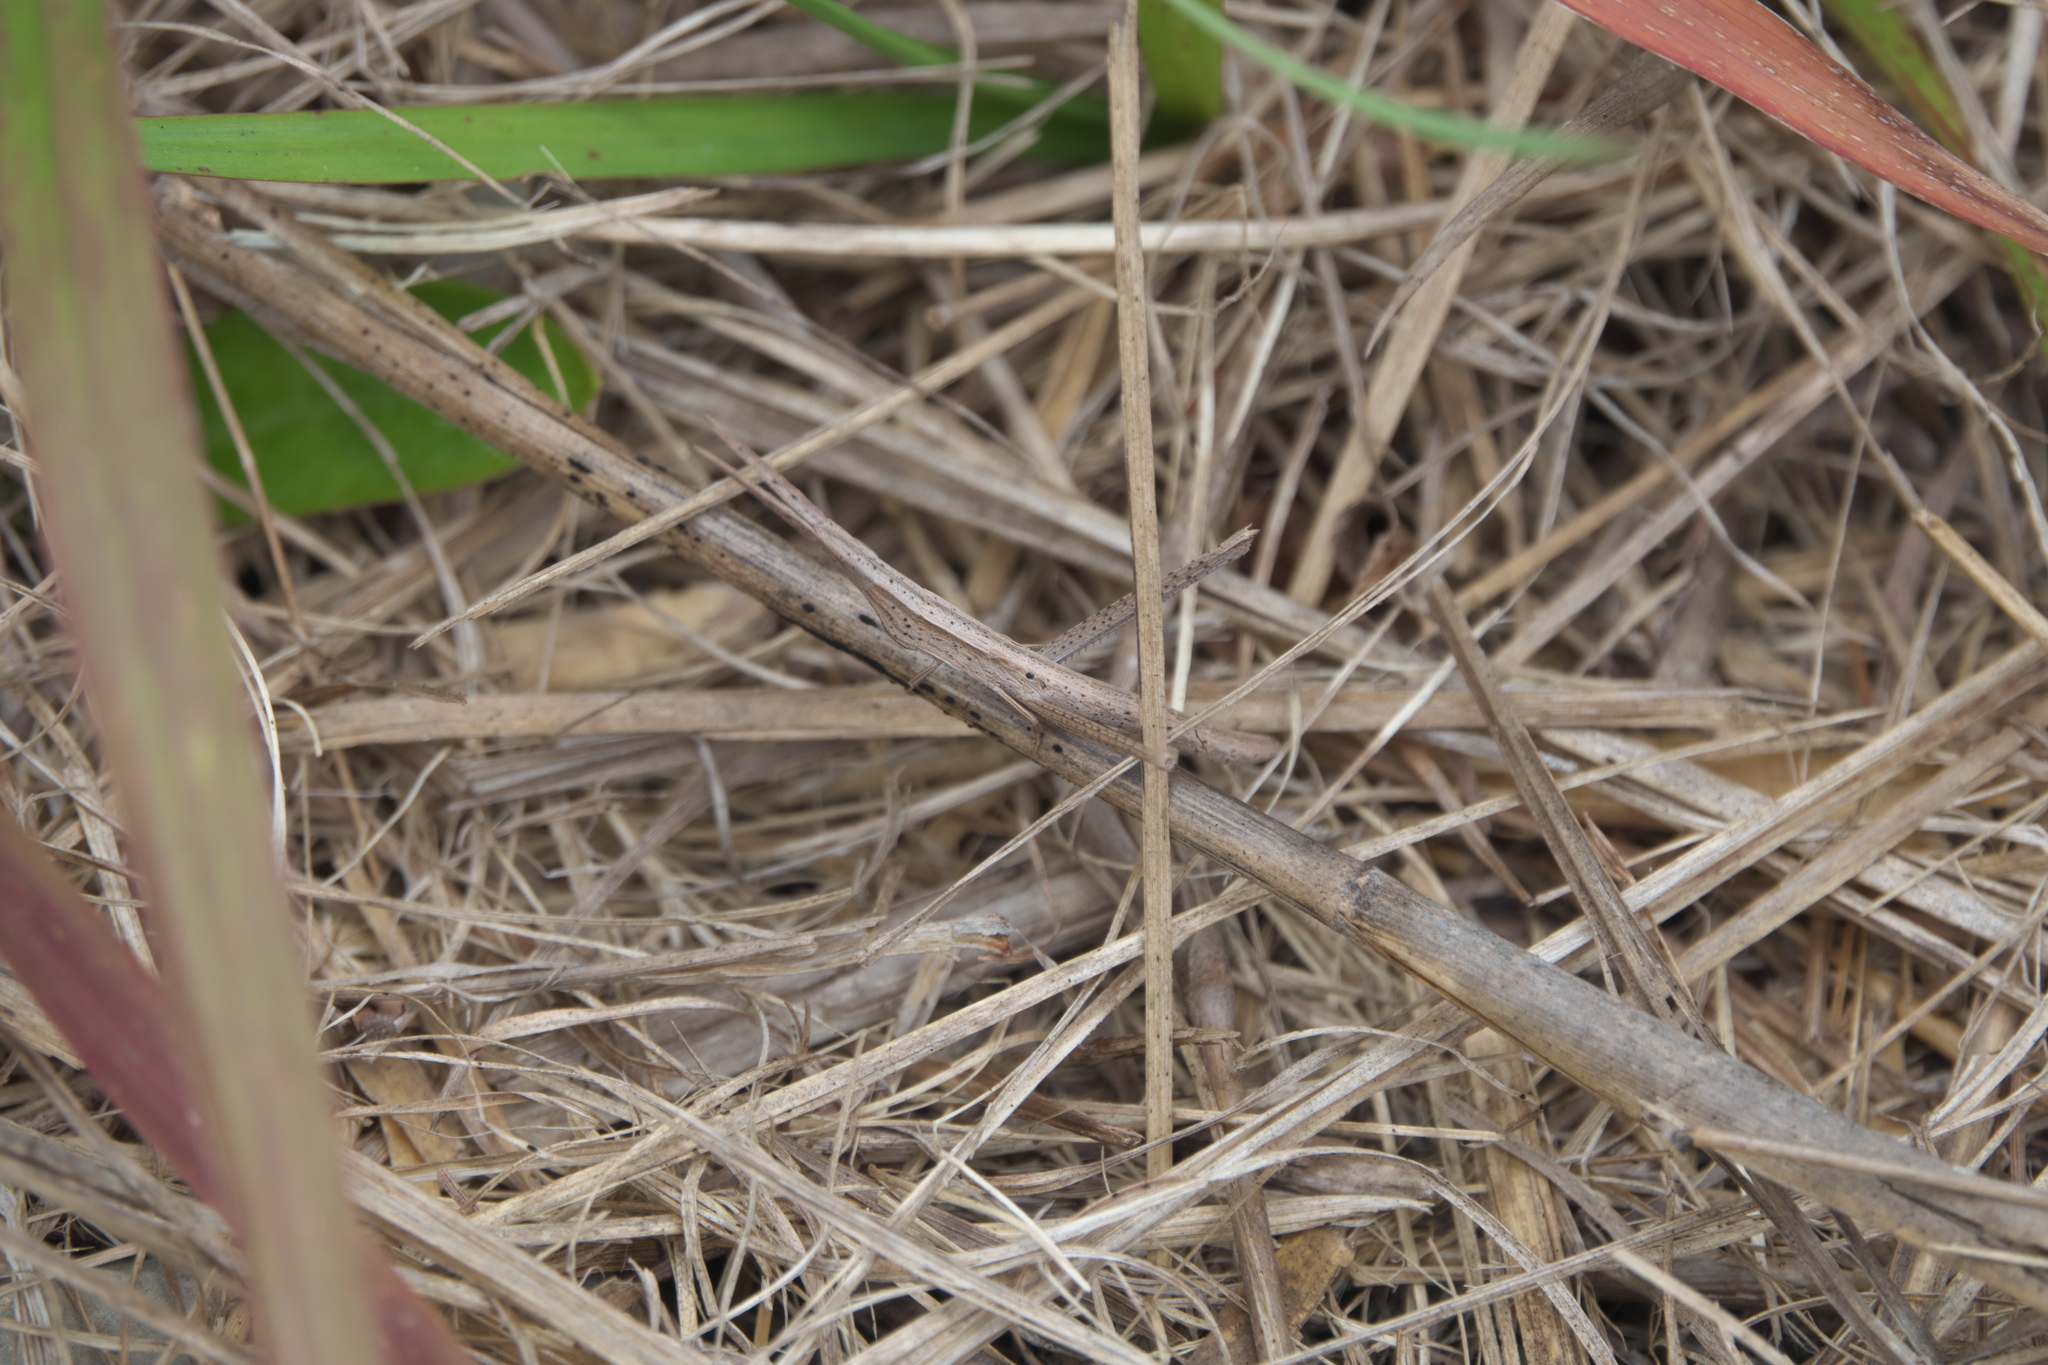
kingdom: Animalia
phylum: Arthropoda
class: Insecta
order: Orthoptera
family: Acrididae
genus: Achurum
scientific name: Achurum carinatum
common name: Long-headed toothpick grasshopper
